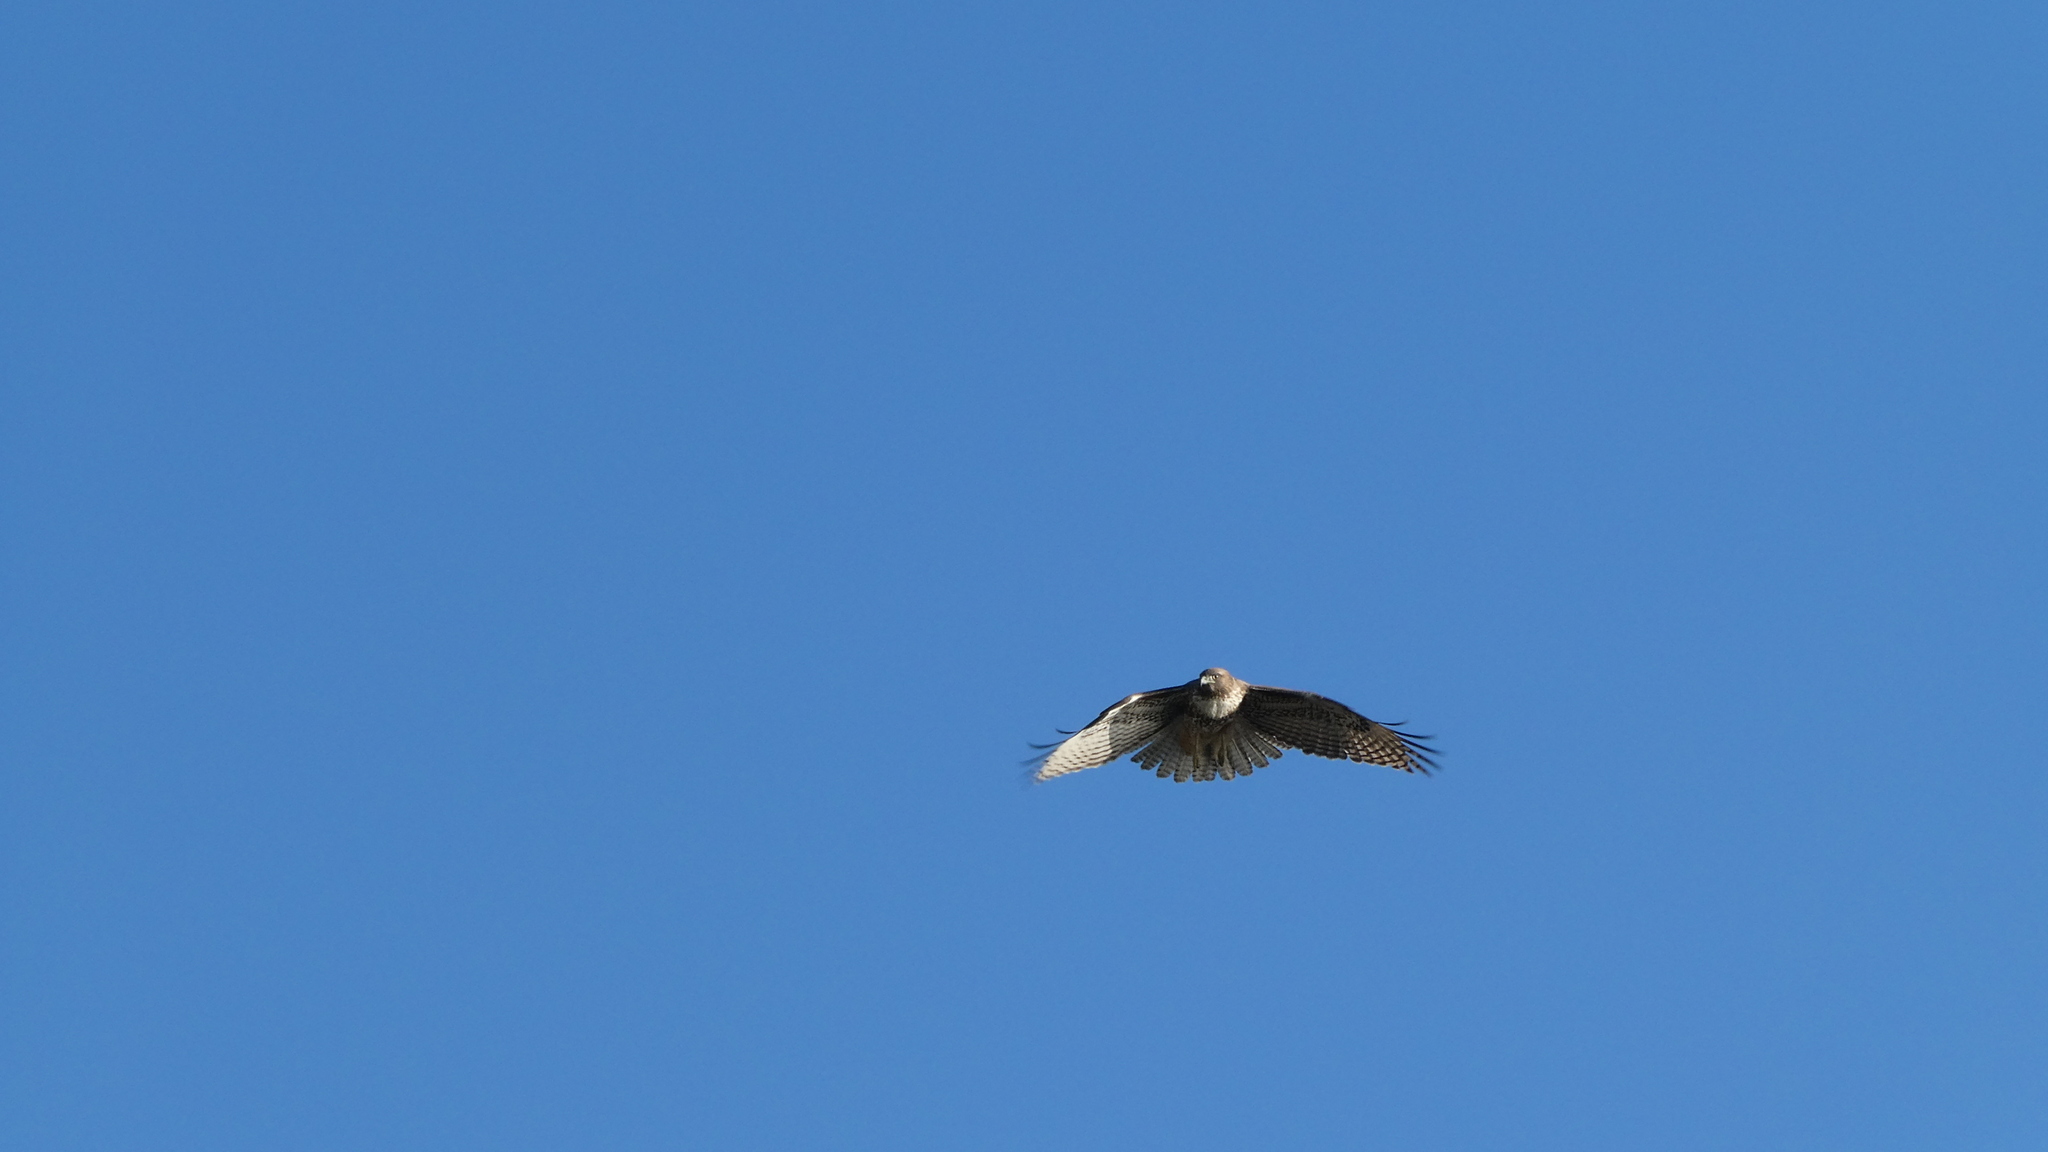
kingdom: Animalia
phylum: Chordata
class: Aves
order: Accipitriformes
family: Accipitridae
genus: Buteo
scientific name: Buteo jamaicensis
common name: Red-tailed hawk
